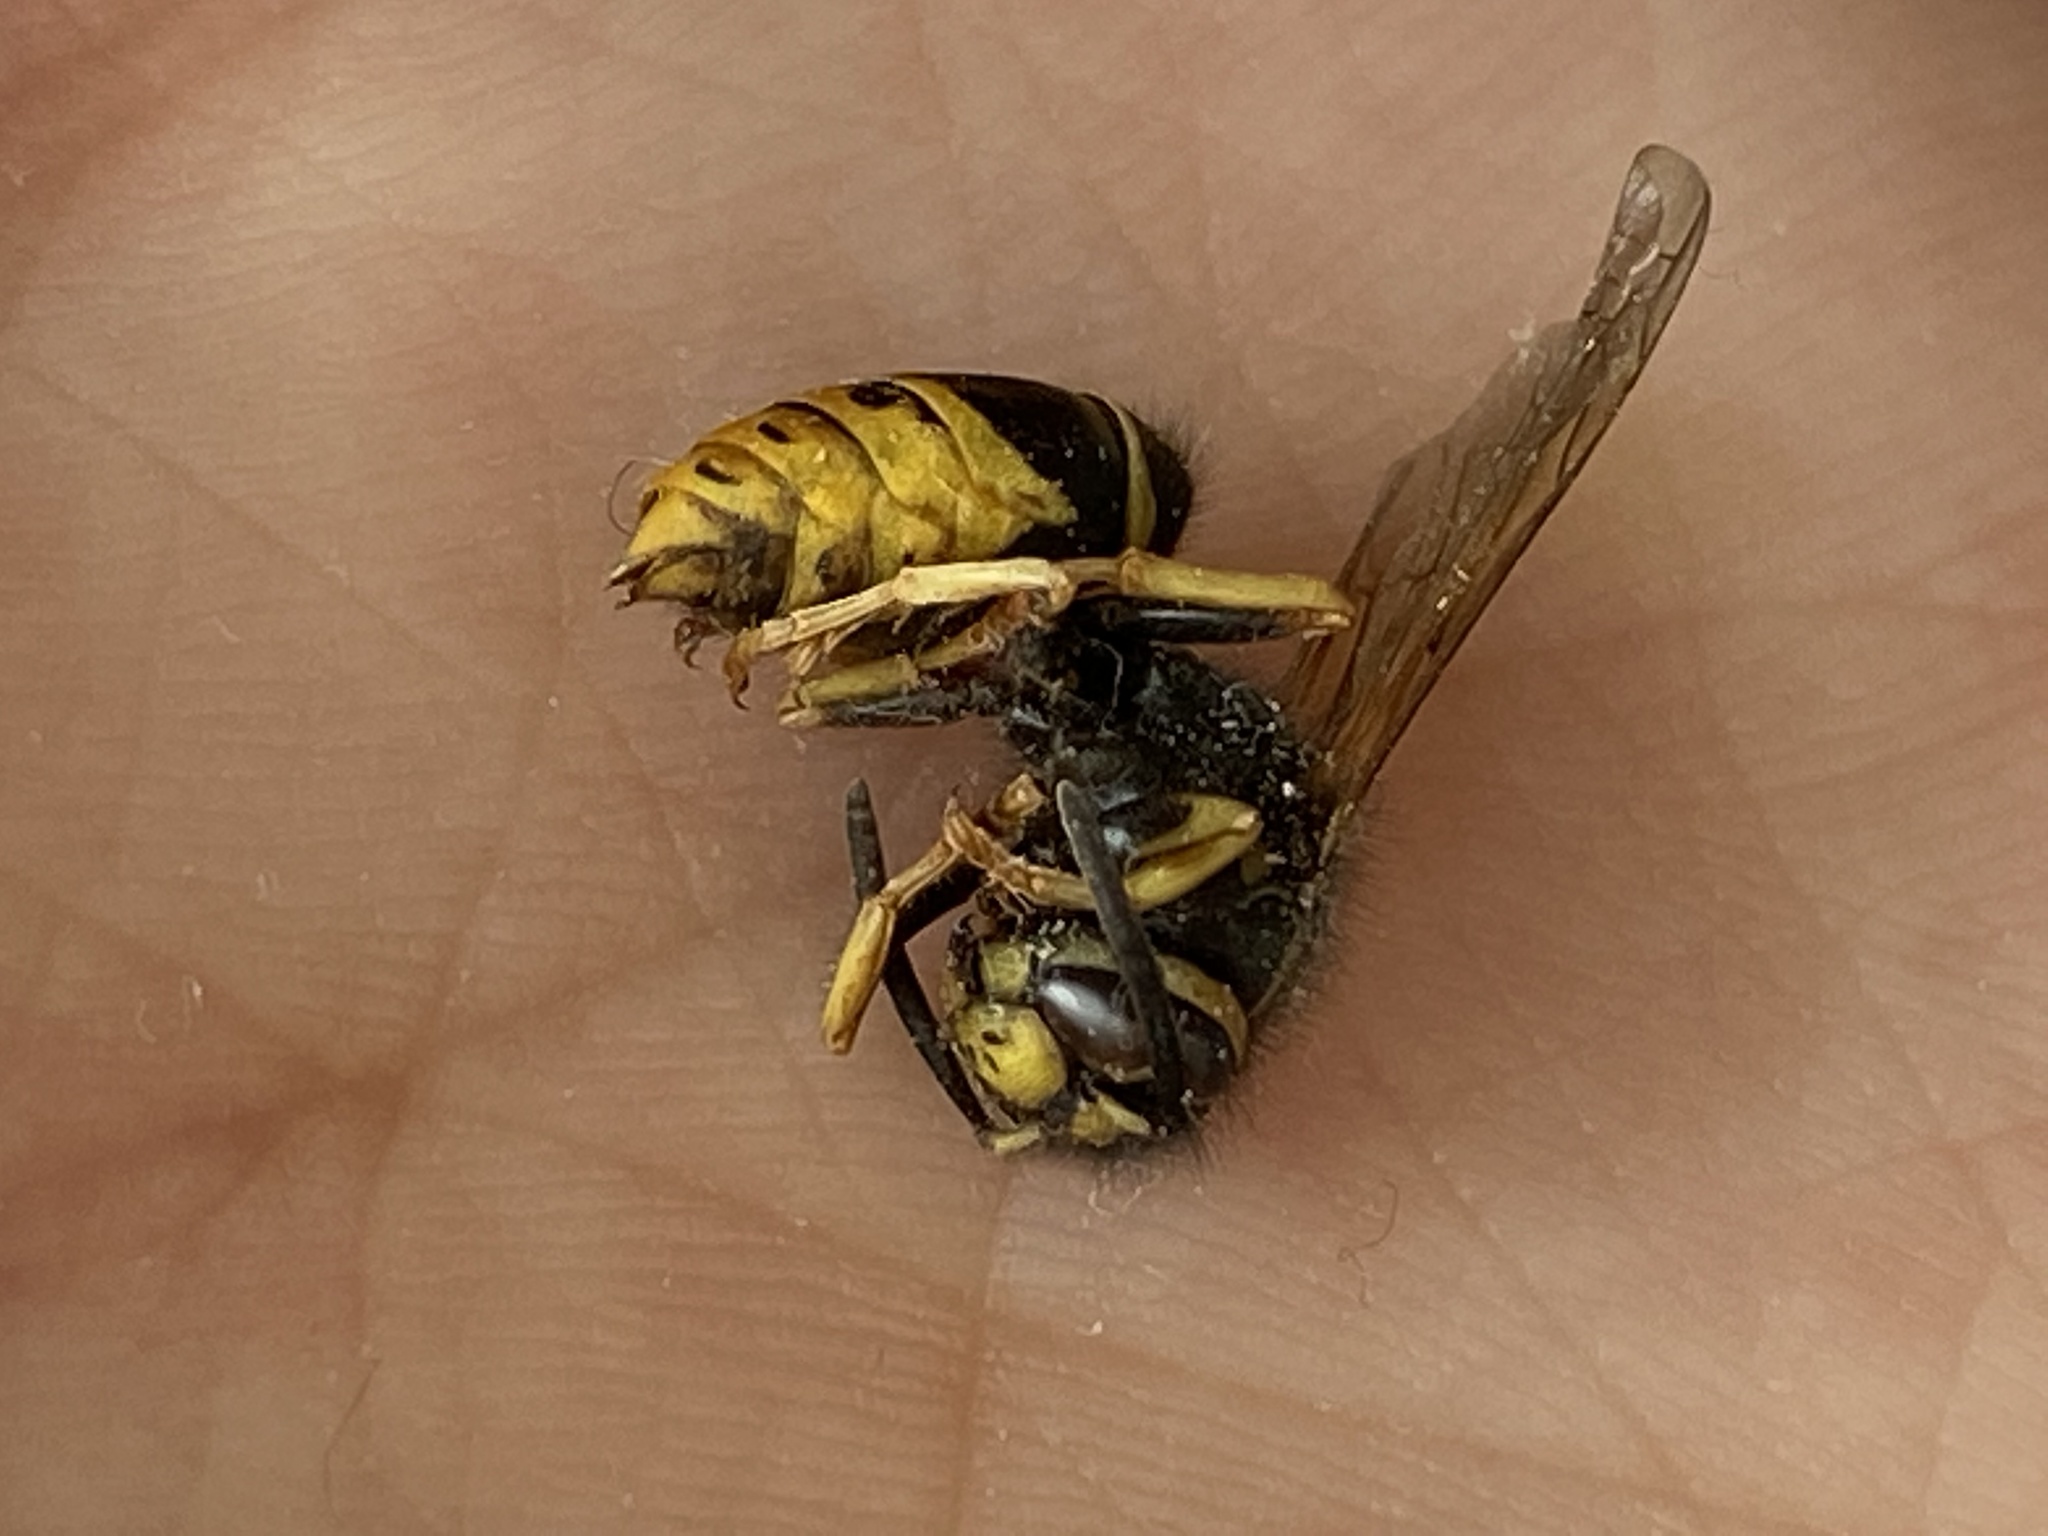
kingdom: Animalia
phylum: Arthropoda
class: Insecta
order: Hymenoptera
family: Vespidae
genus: Vespula
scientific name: Vespula vidua
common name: Widow yellowjacket
